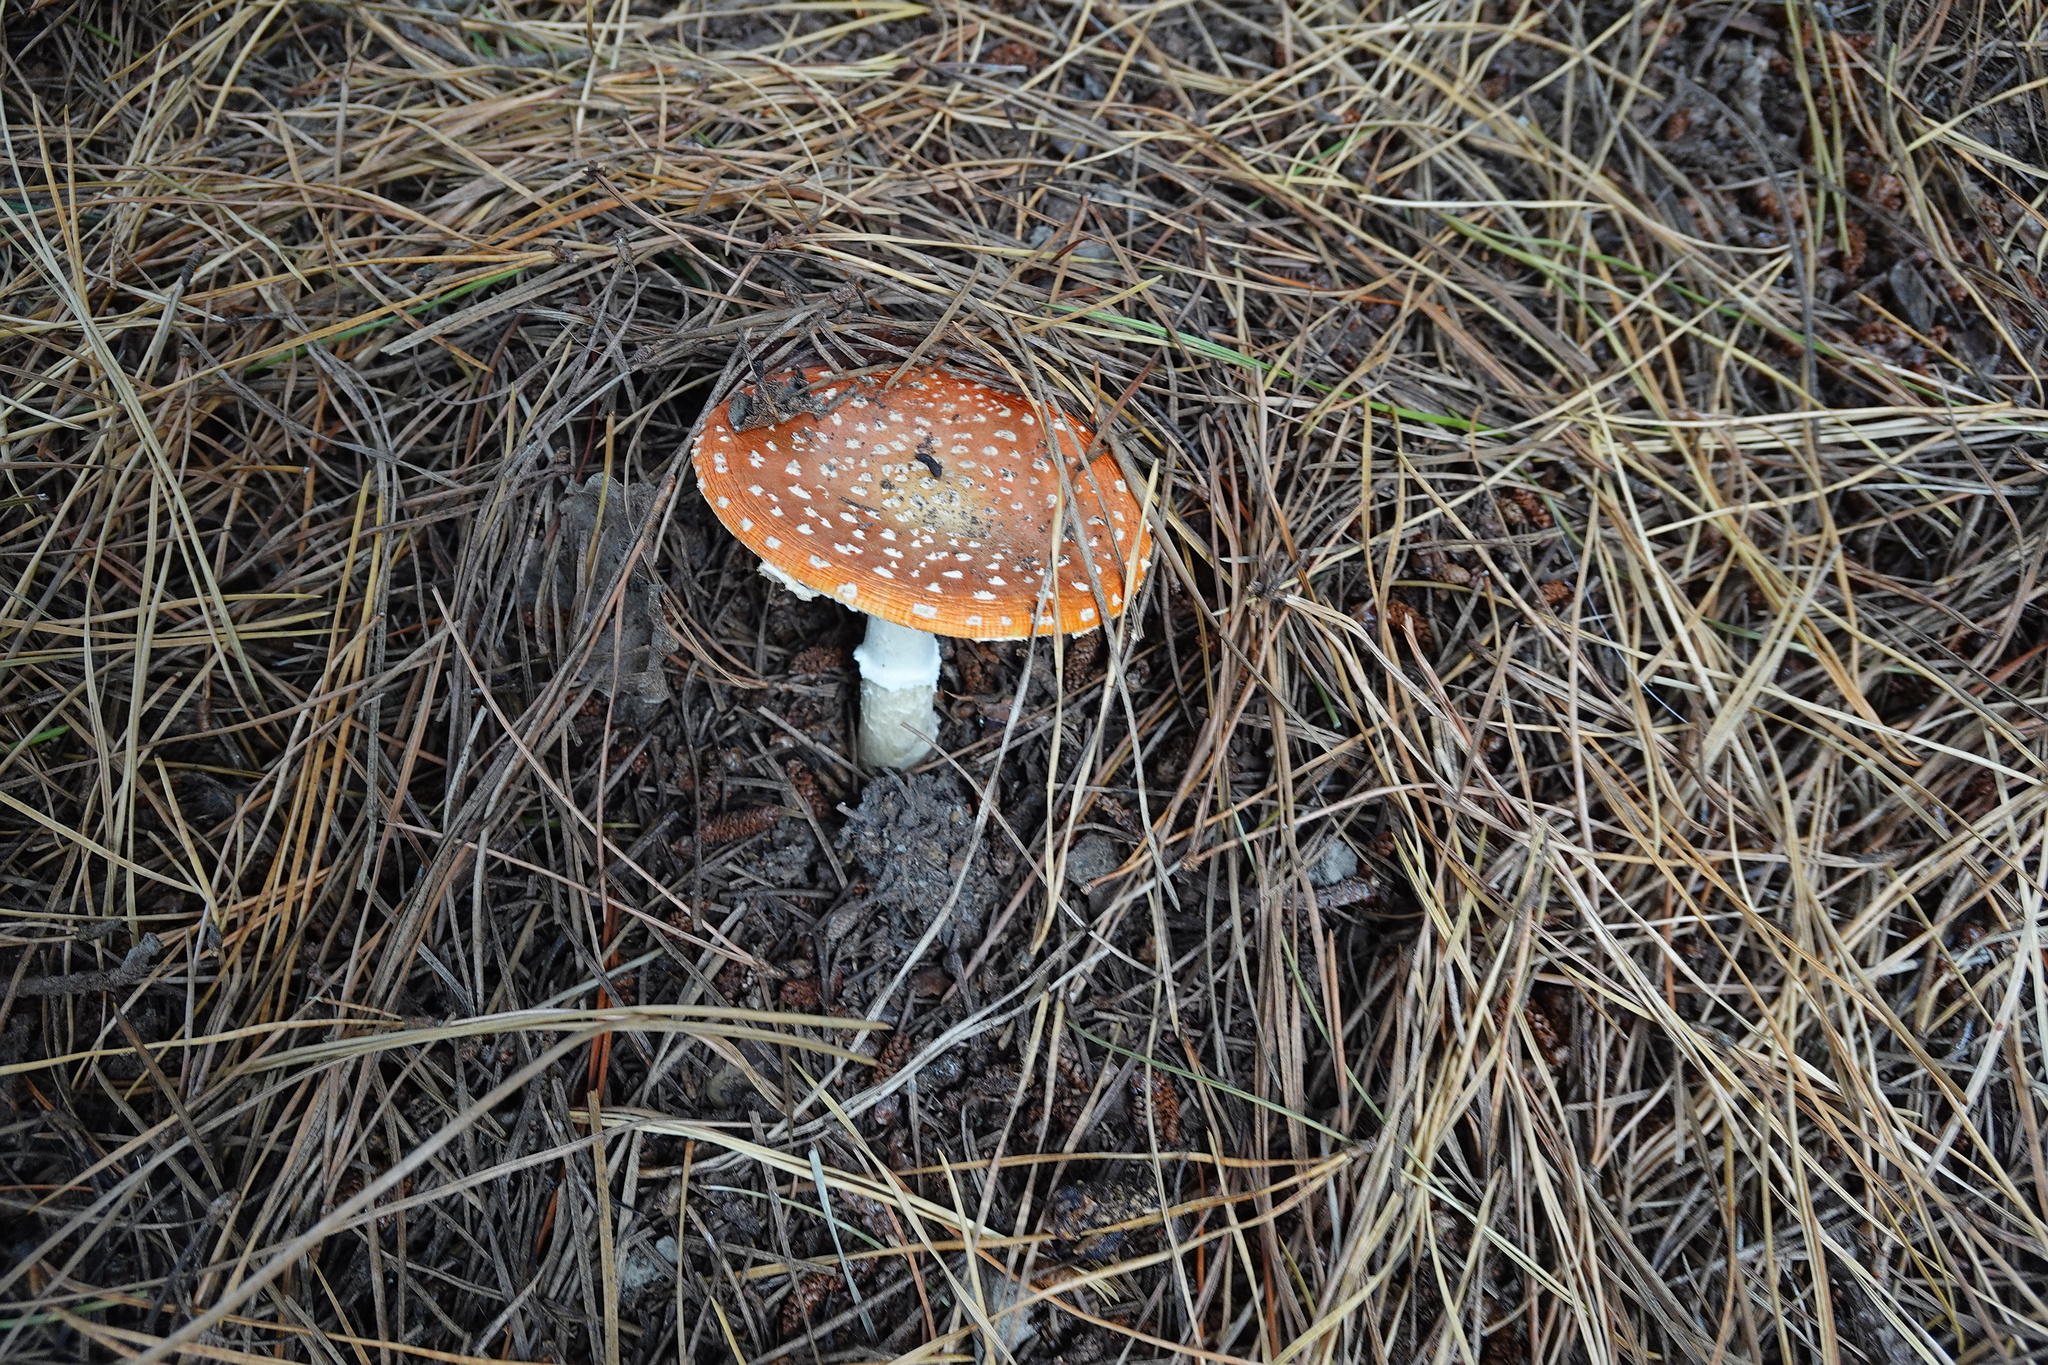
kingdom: Fungi
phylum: Basidiomycota
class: Agaricomycetes
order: Agaricales
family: Amanitaceae
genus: Amanita
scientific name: Amanita muscaria
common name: Fly agaric
